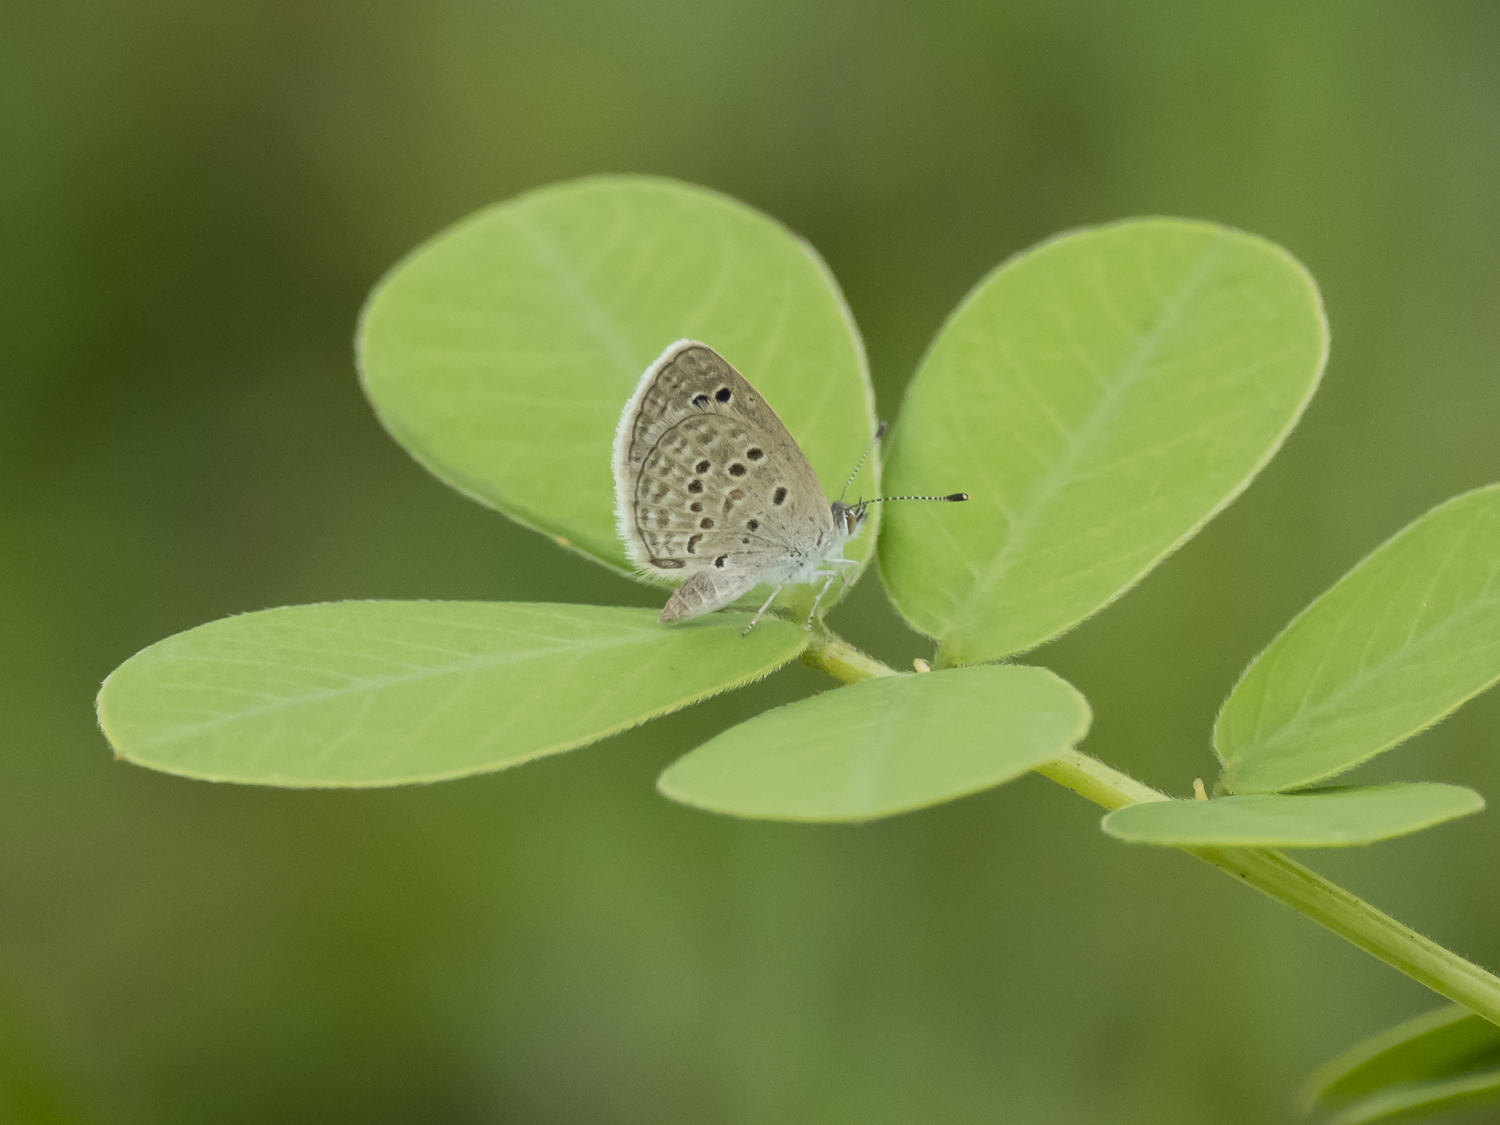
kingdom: Animalia
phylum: Arthropoda
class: Insecta
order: Lepidoptera
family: Lycaenidae
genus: Zizina
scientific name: Zizina otis
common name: Lesser grass blue
